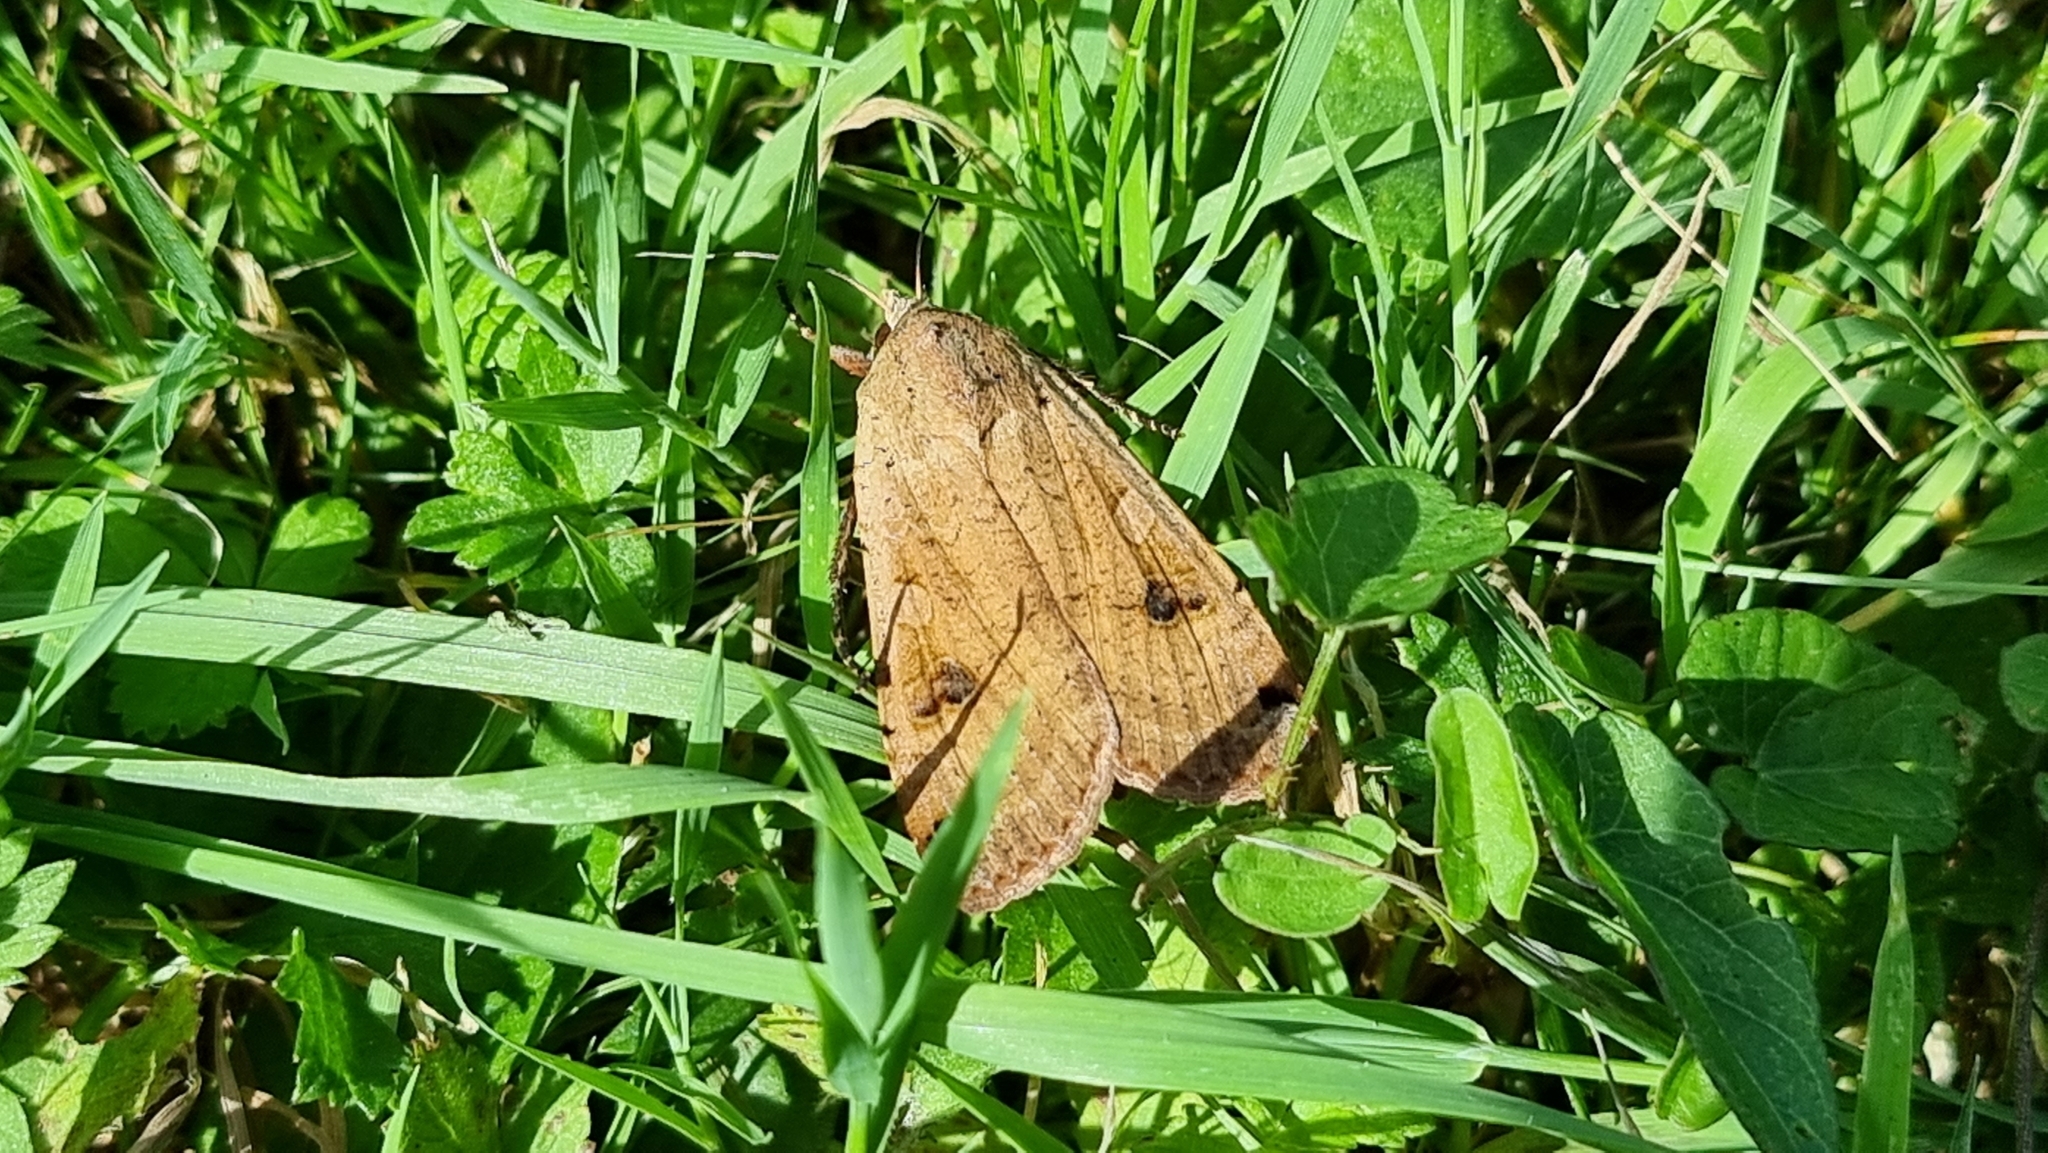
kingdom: Animalia
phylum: Arthropoda
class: Insecta
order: Lepidoptera
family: Noctuidae
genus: Noctua
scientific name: Noctua pronuba
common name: Large yellow underwing
